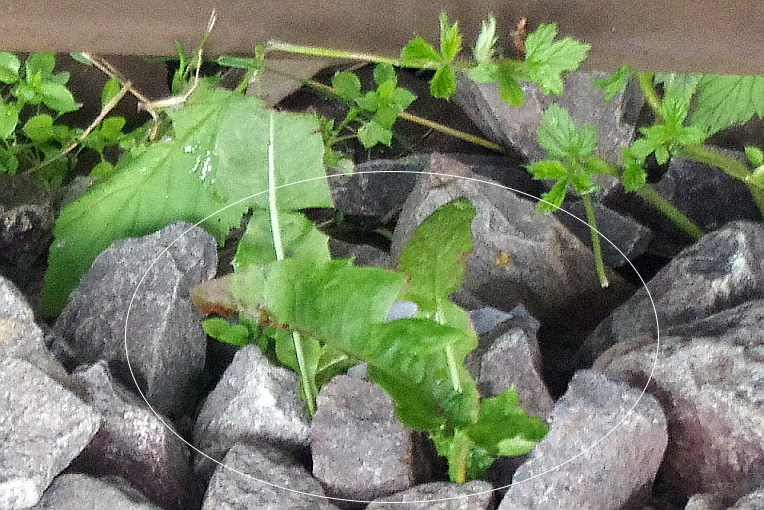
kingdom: Plantae
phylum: Tracheophyta
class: Magnoliopsida
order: Asterales
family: Asteraceae
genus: Taraxacum
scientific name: Taraxacum officinale
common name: Common dandelion
